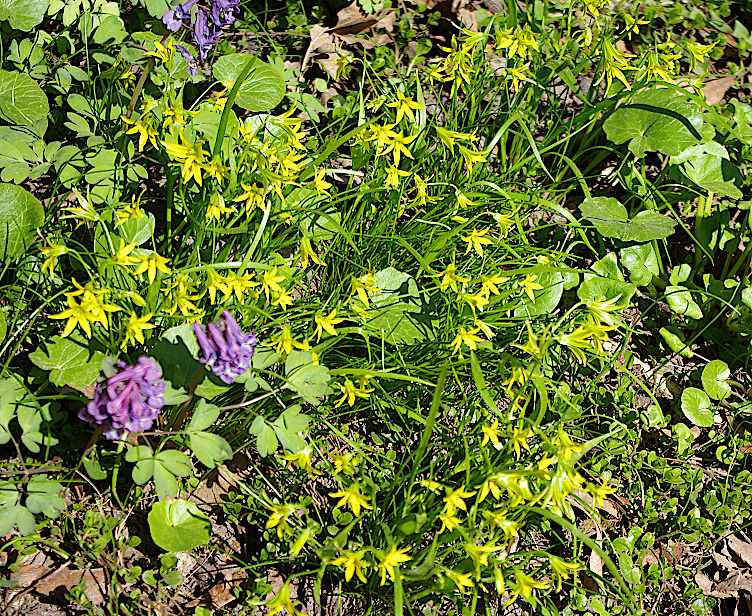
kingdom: Plantae
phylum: Tracheophyta
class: Liliopsida
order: Liliales
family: Liliaceae
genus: Gagea
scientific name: Gagea minima
